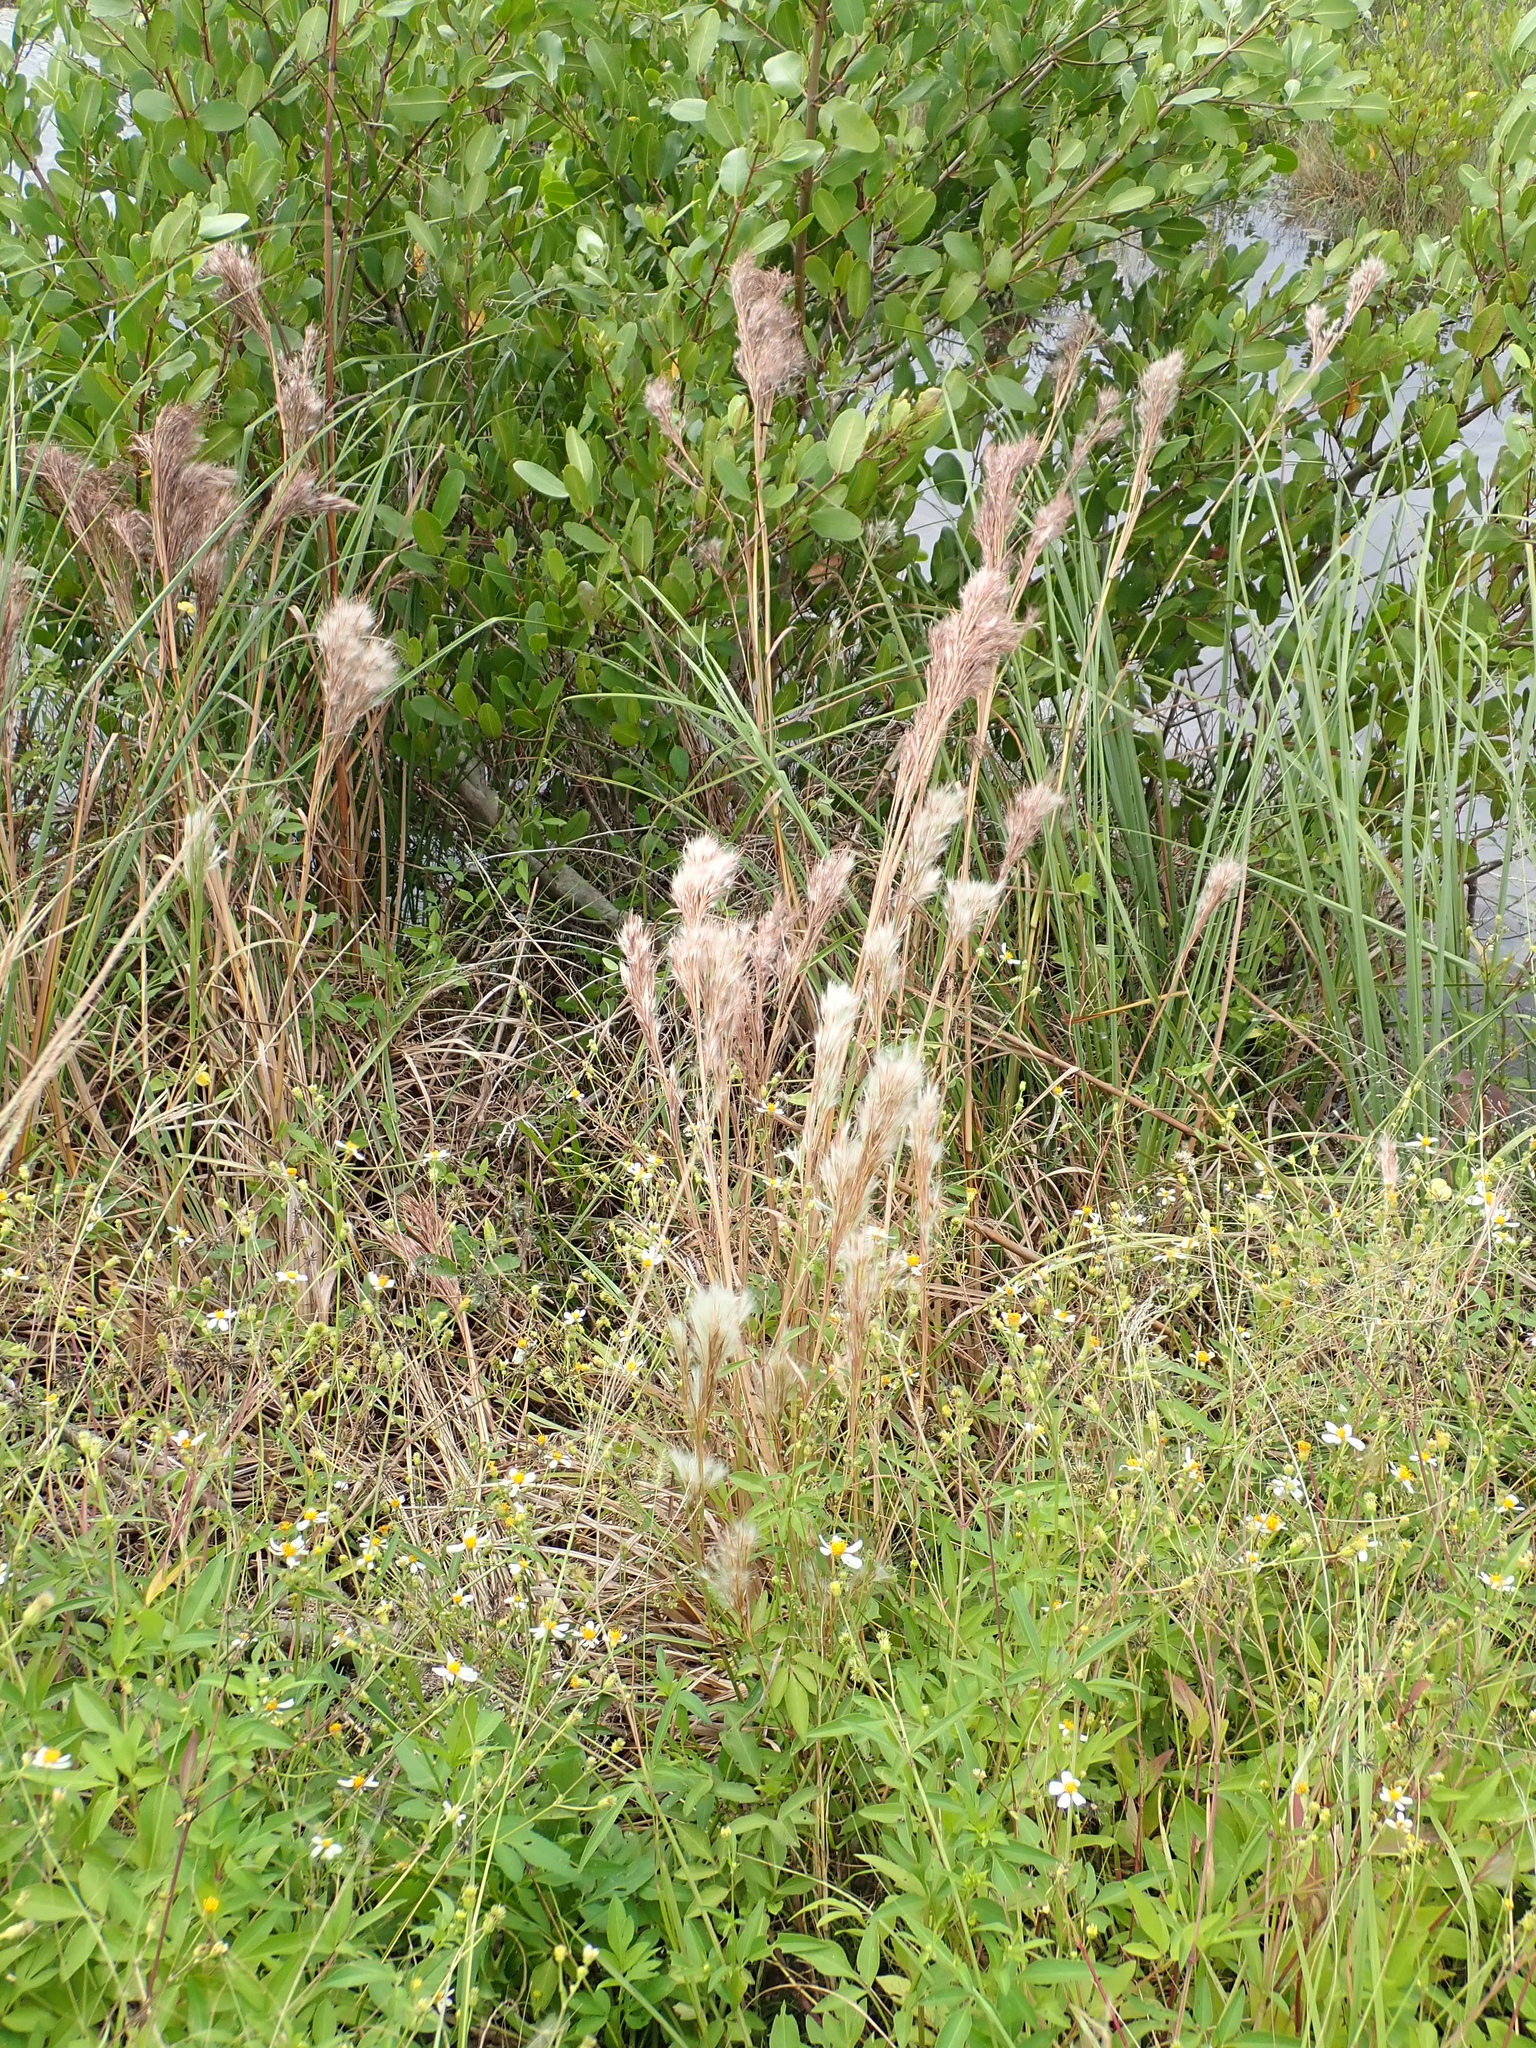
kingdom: Plantae
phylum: Tracheophyta
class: Liliopsida
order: Poales
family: Poaceae
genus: Andropogon
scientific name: Andropogon tenuispatheus
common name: Bushy bluestem
